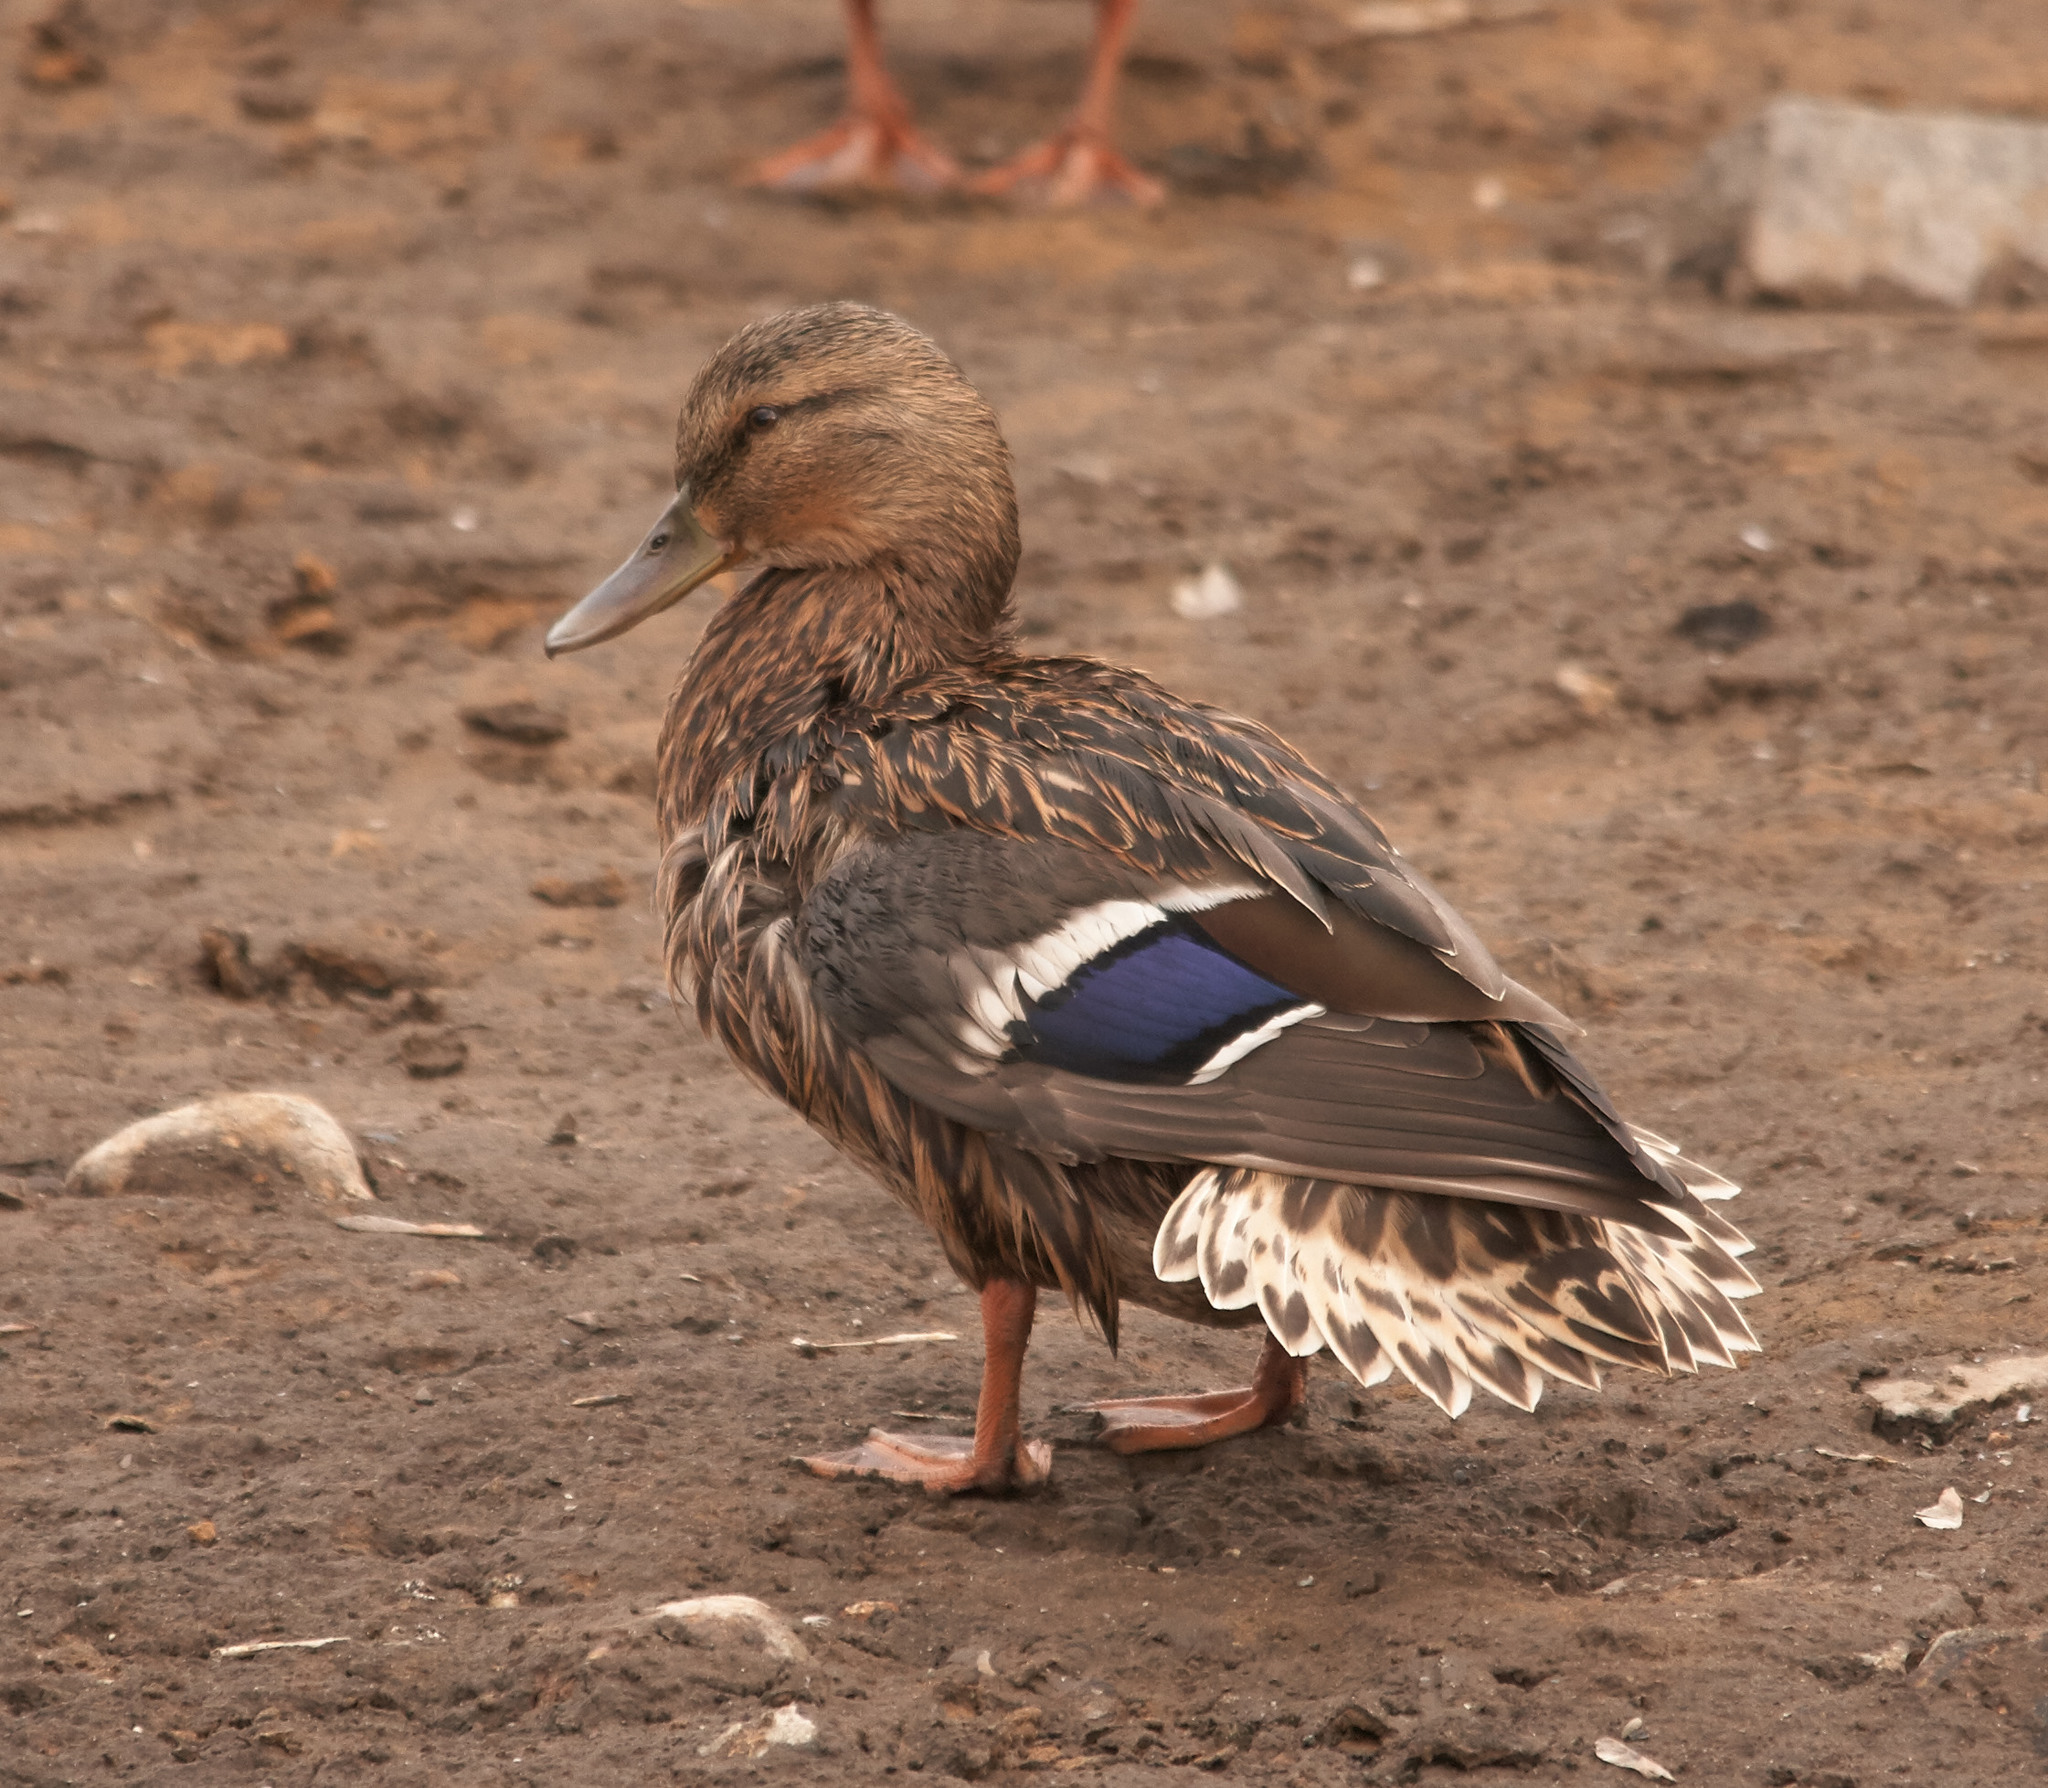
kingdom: Animalia
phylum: Chordata
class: Aves
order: Anseriformes
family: Anatidae
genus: Anas
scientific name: Anas platyrhynchos
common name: Mallard
